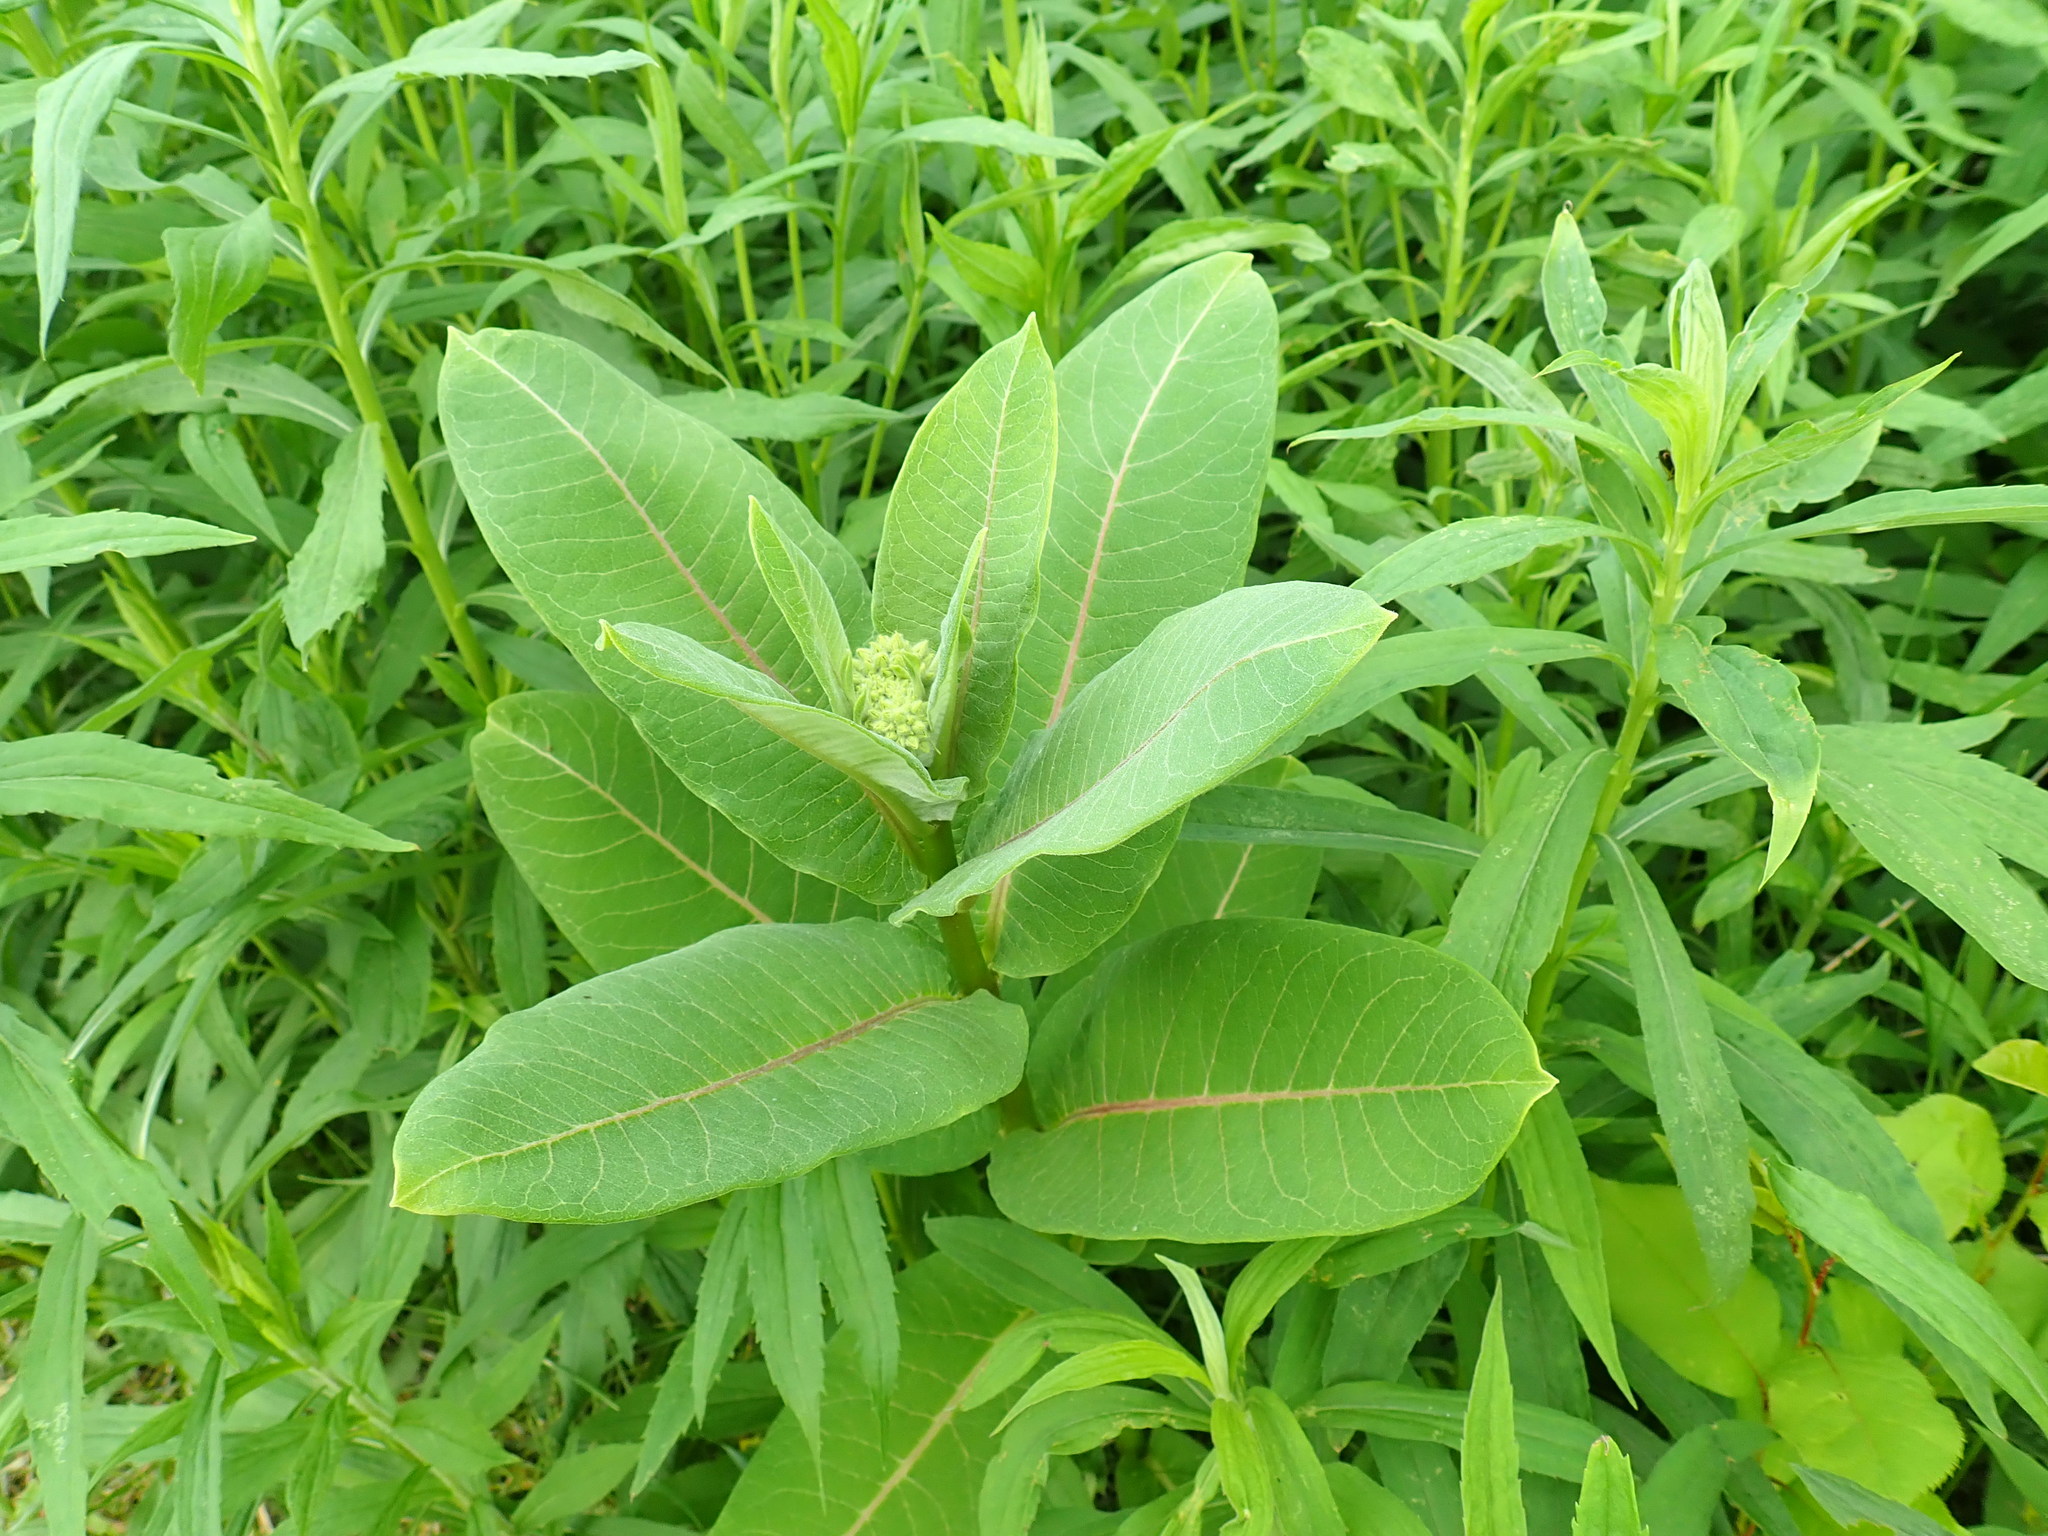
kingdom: Plantae
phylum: Tracheophyta
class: Magnoliopsida
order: Gentianales
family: Apocynaceae
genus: Asclepias
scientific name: Asclepias syriaca
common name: Common milkweed
